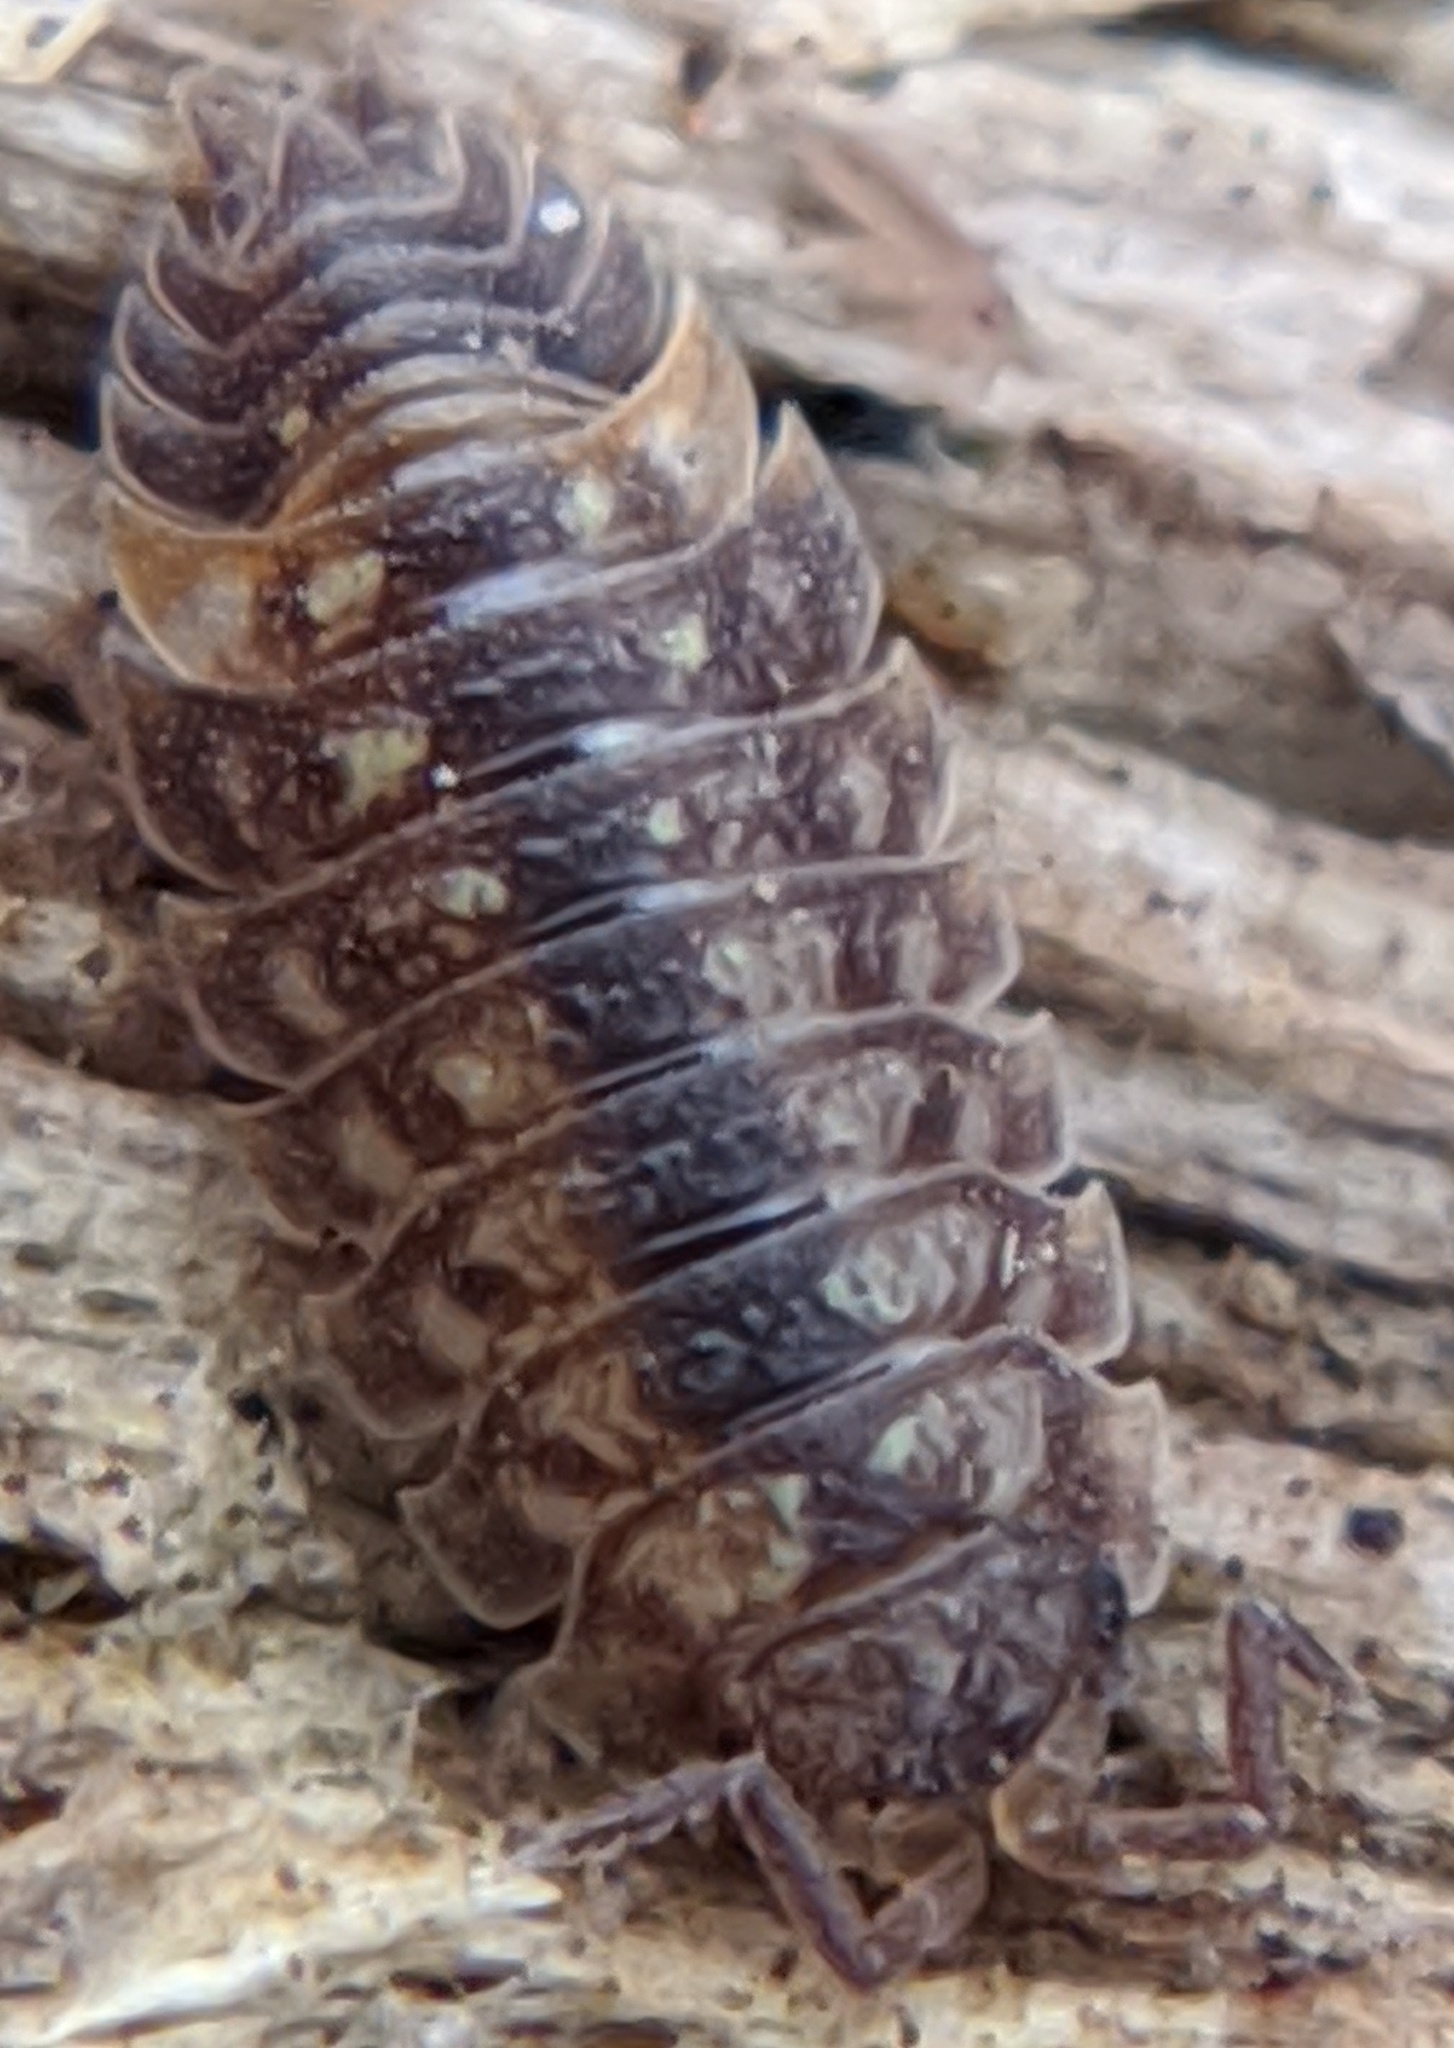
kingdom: Animalia
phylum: Arthropoda
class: Malacostraca
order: Isopoda
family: Oniscidae
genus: Oniscus
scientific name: Oniscus asellus
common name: Common shiny woodlouse
